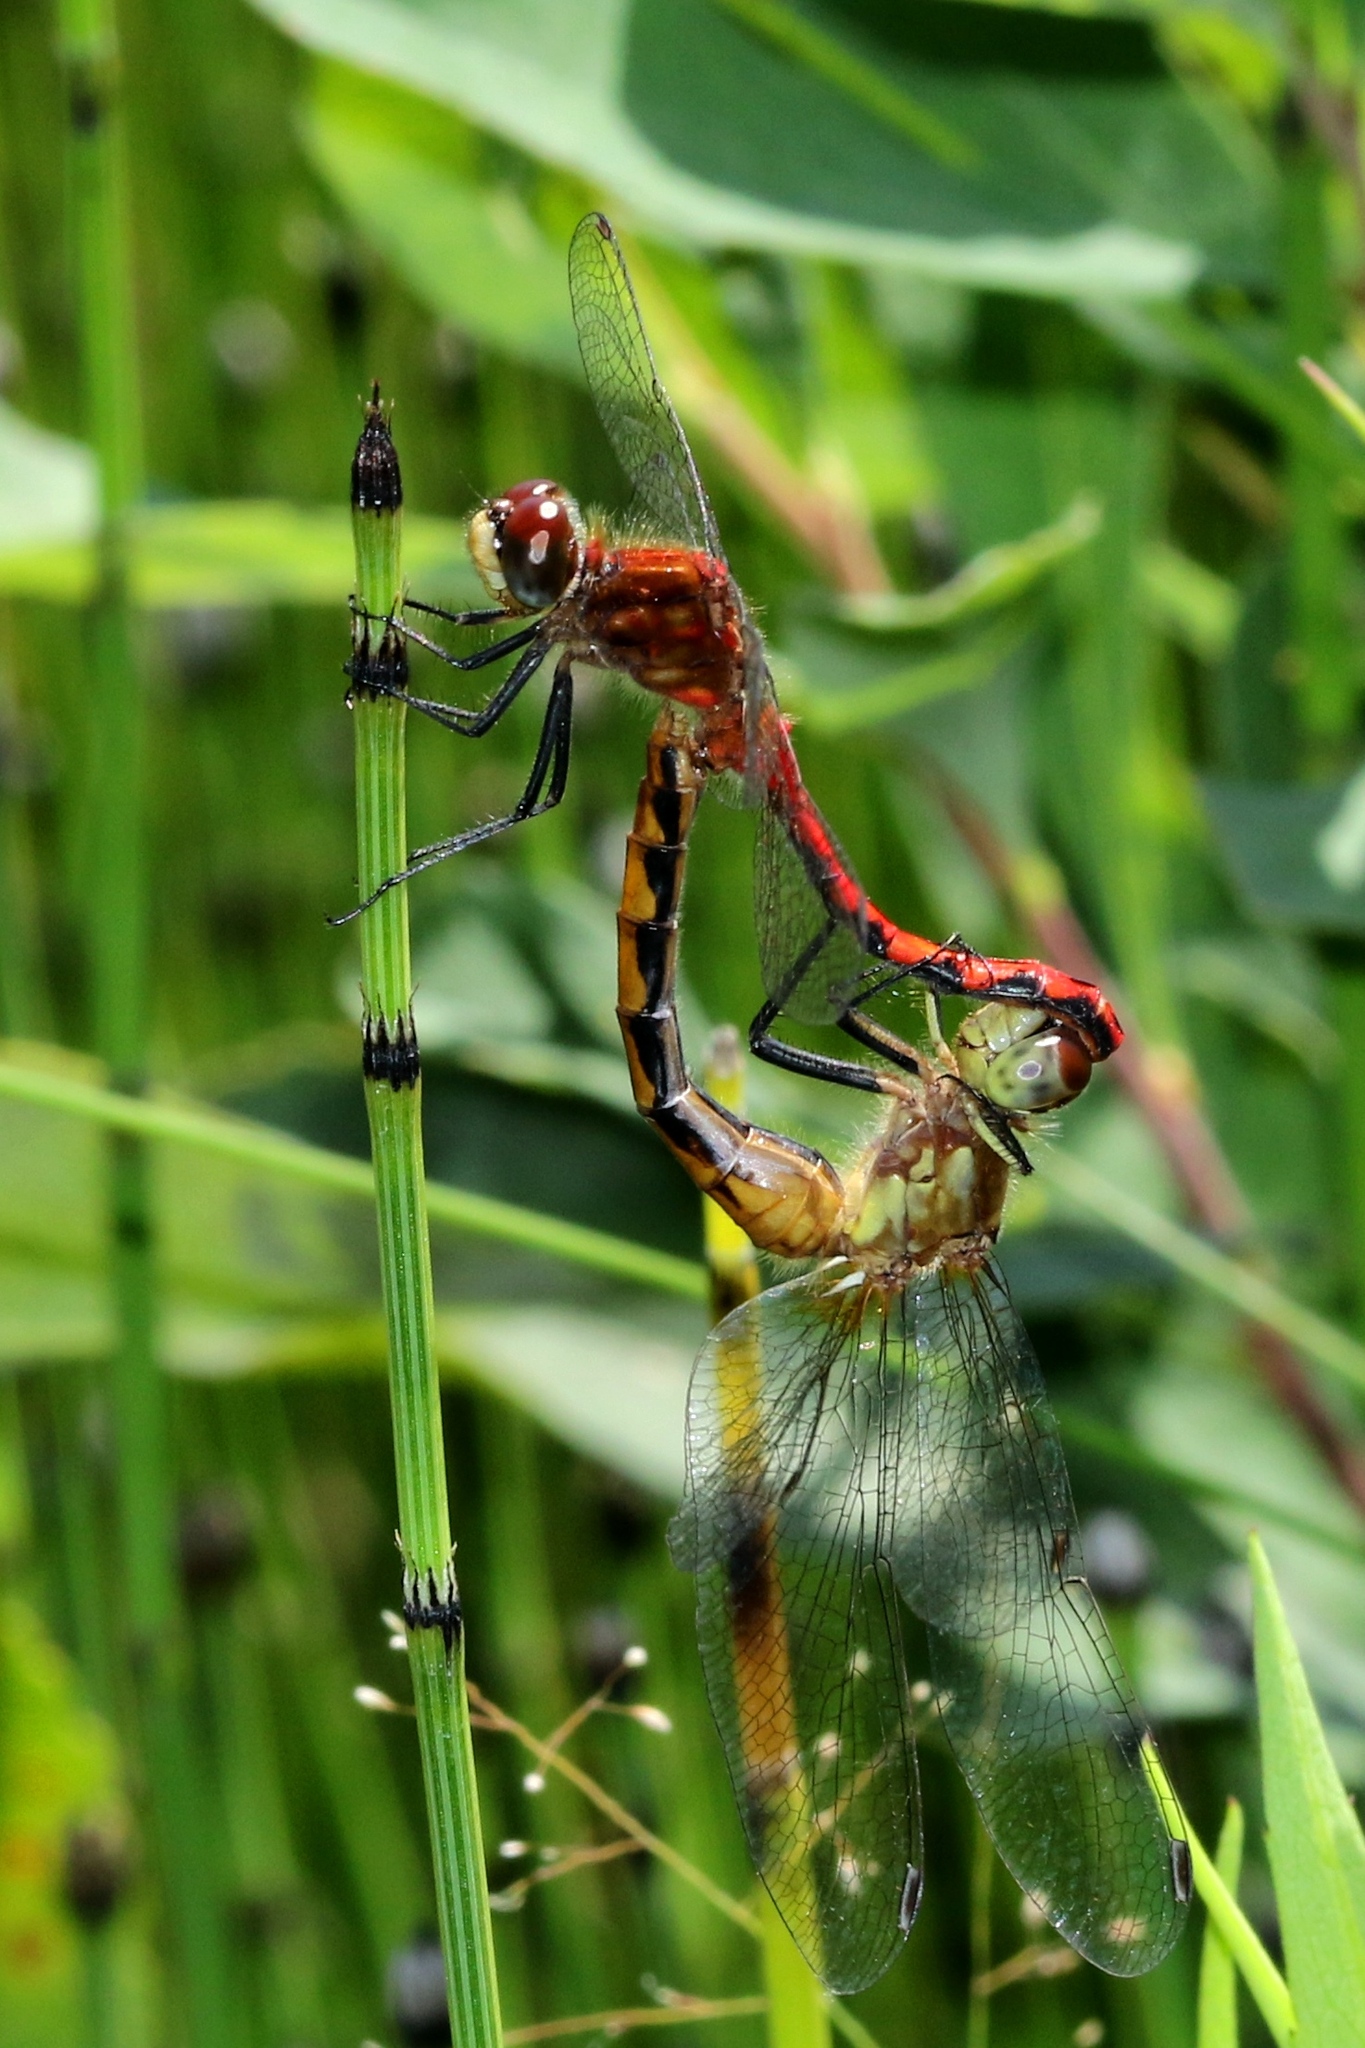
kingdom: Animalia
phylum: Arthropoda
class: Insecta
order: Odonata
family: Libellulidae
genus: Sympetrum
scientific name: Sympetrum obtrusum
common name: White-faced meadowhawk
